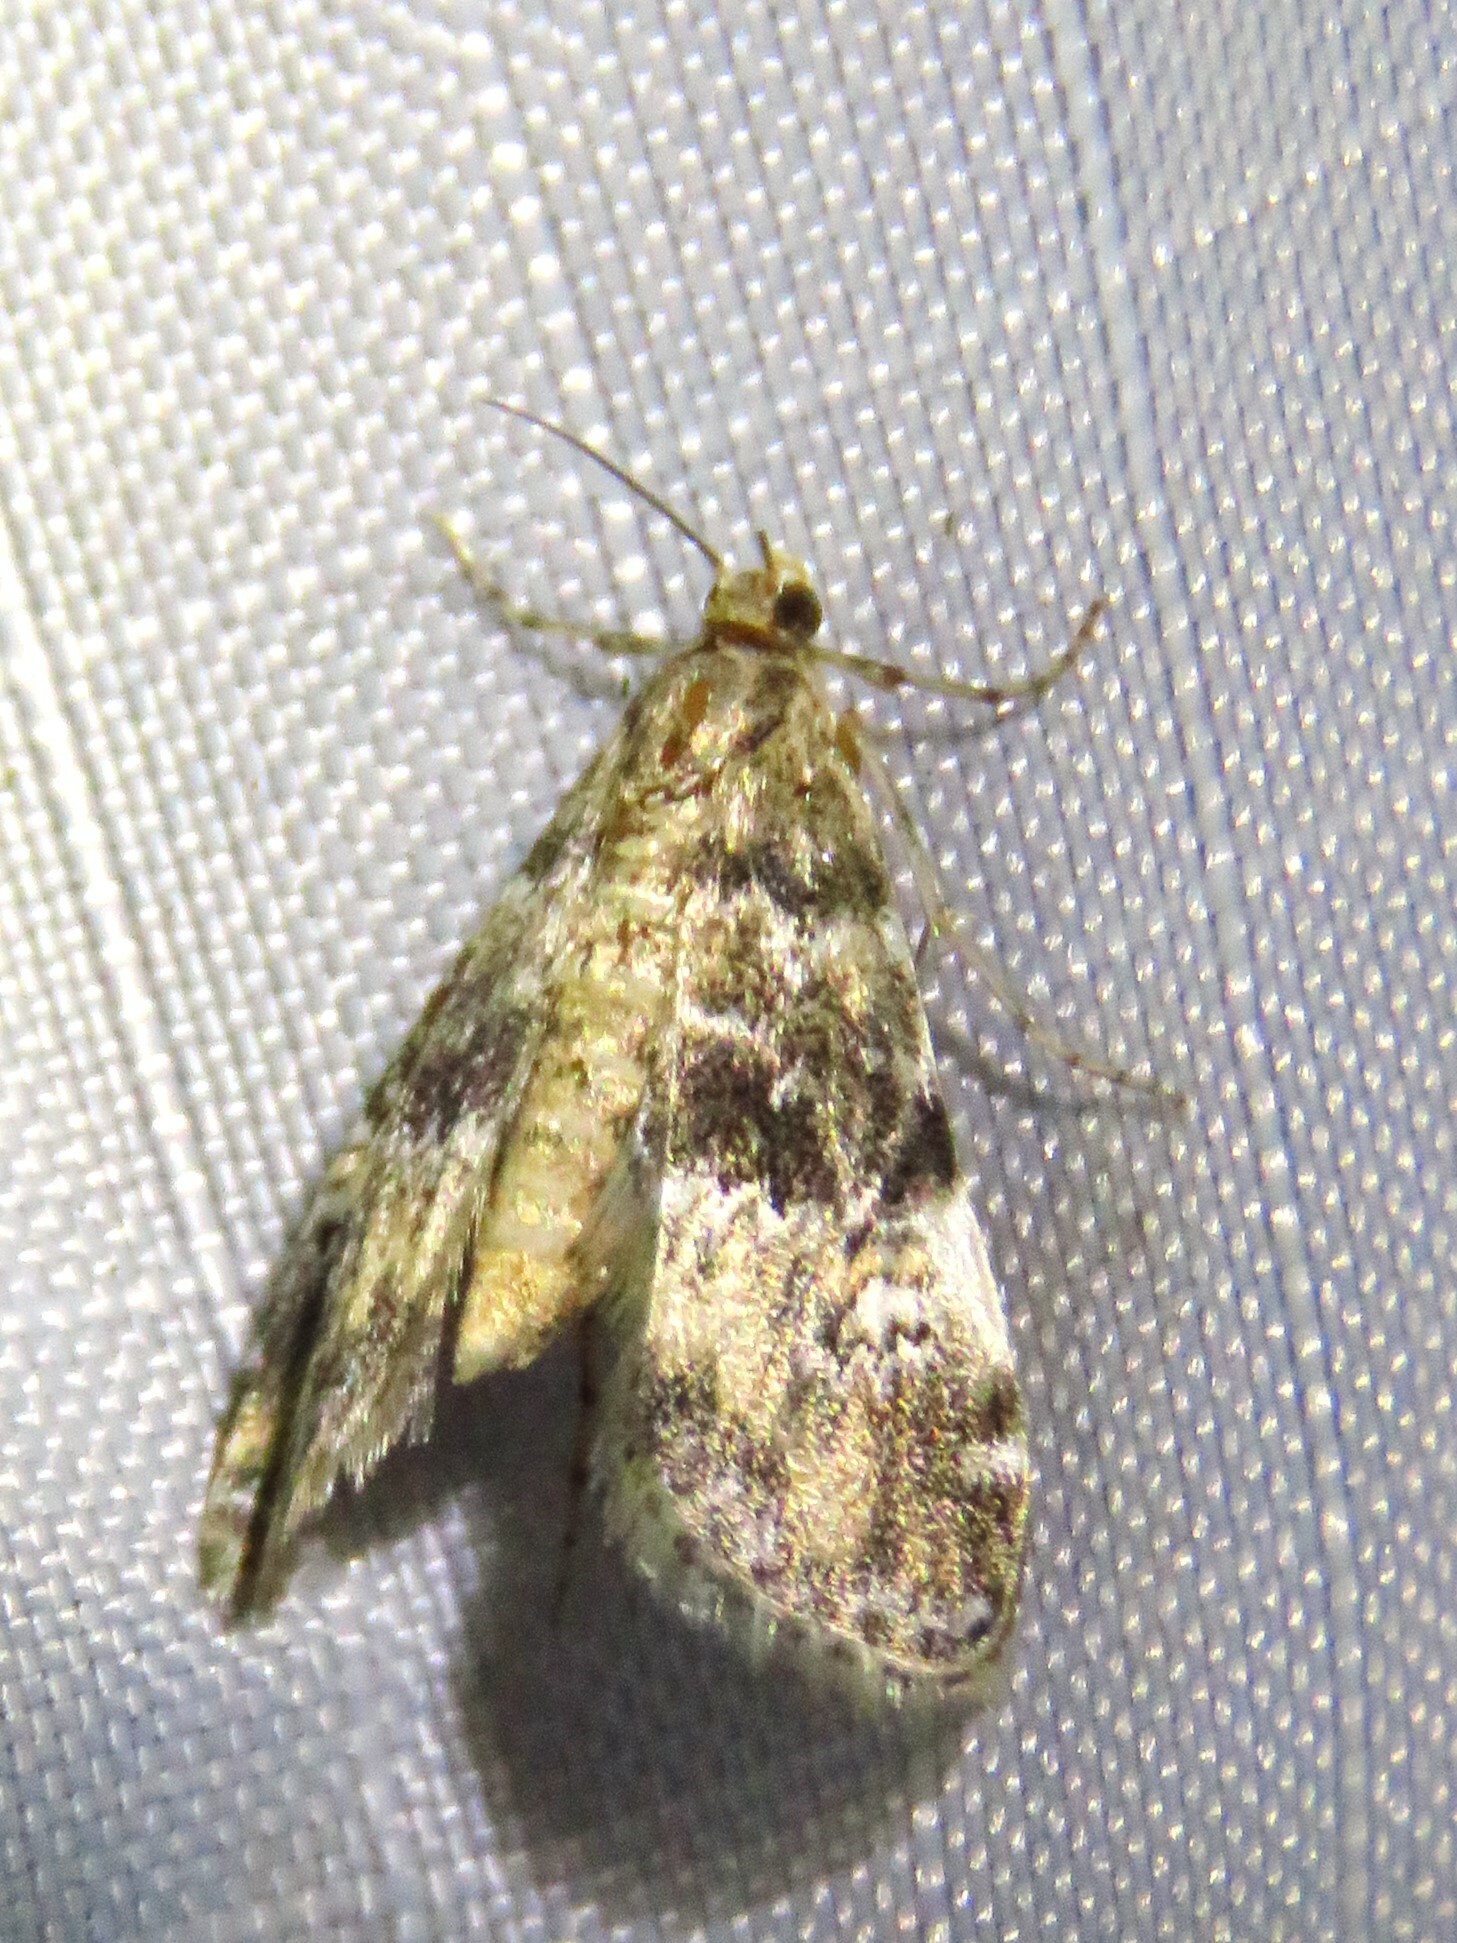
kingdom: Animalia
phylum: Arthropoda
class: Insecta
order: Lepidoptera
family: Crambidae
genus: Elophila
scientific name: Elophila obliteralis
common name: Waterlily leafcutter moth
